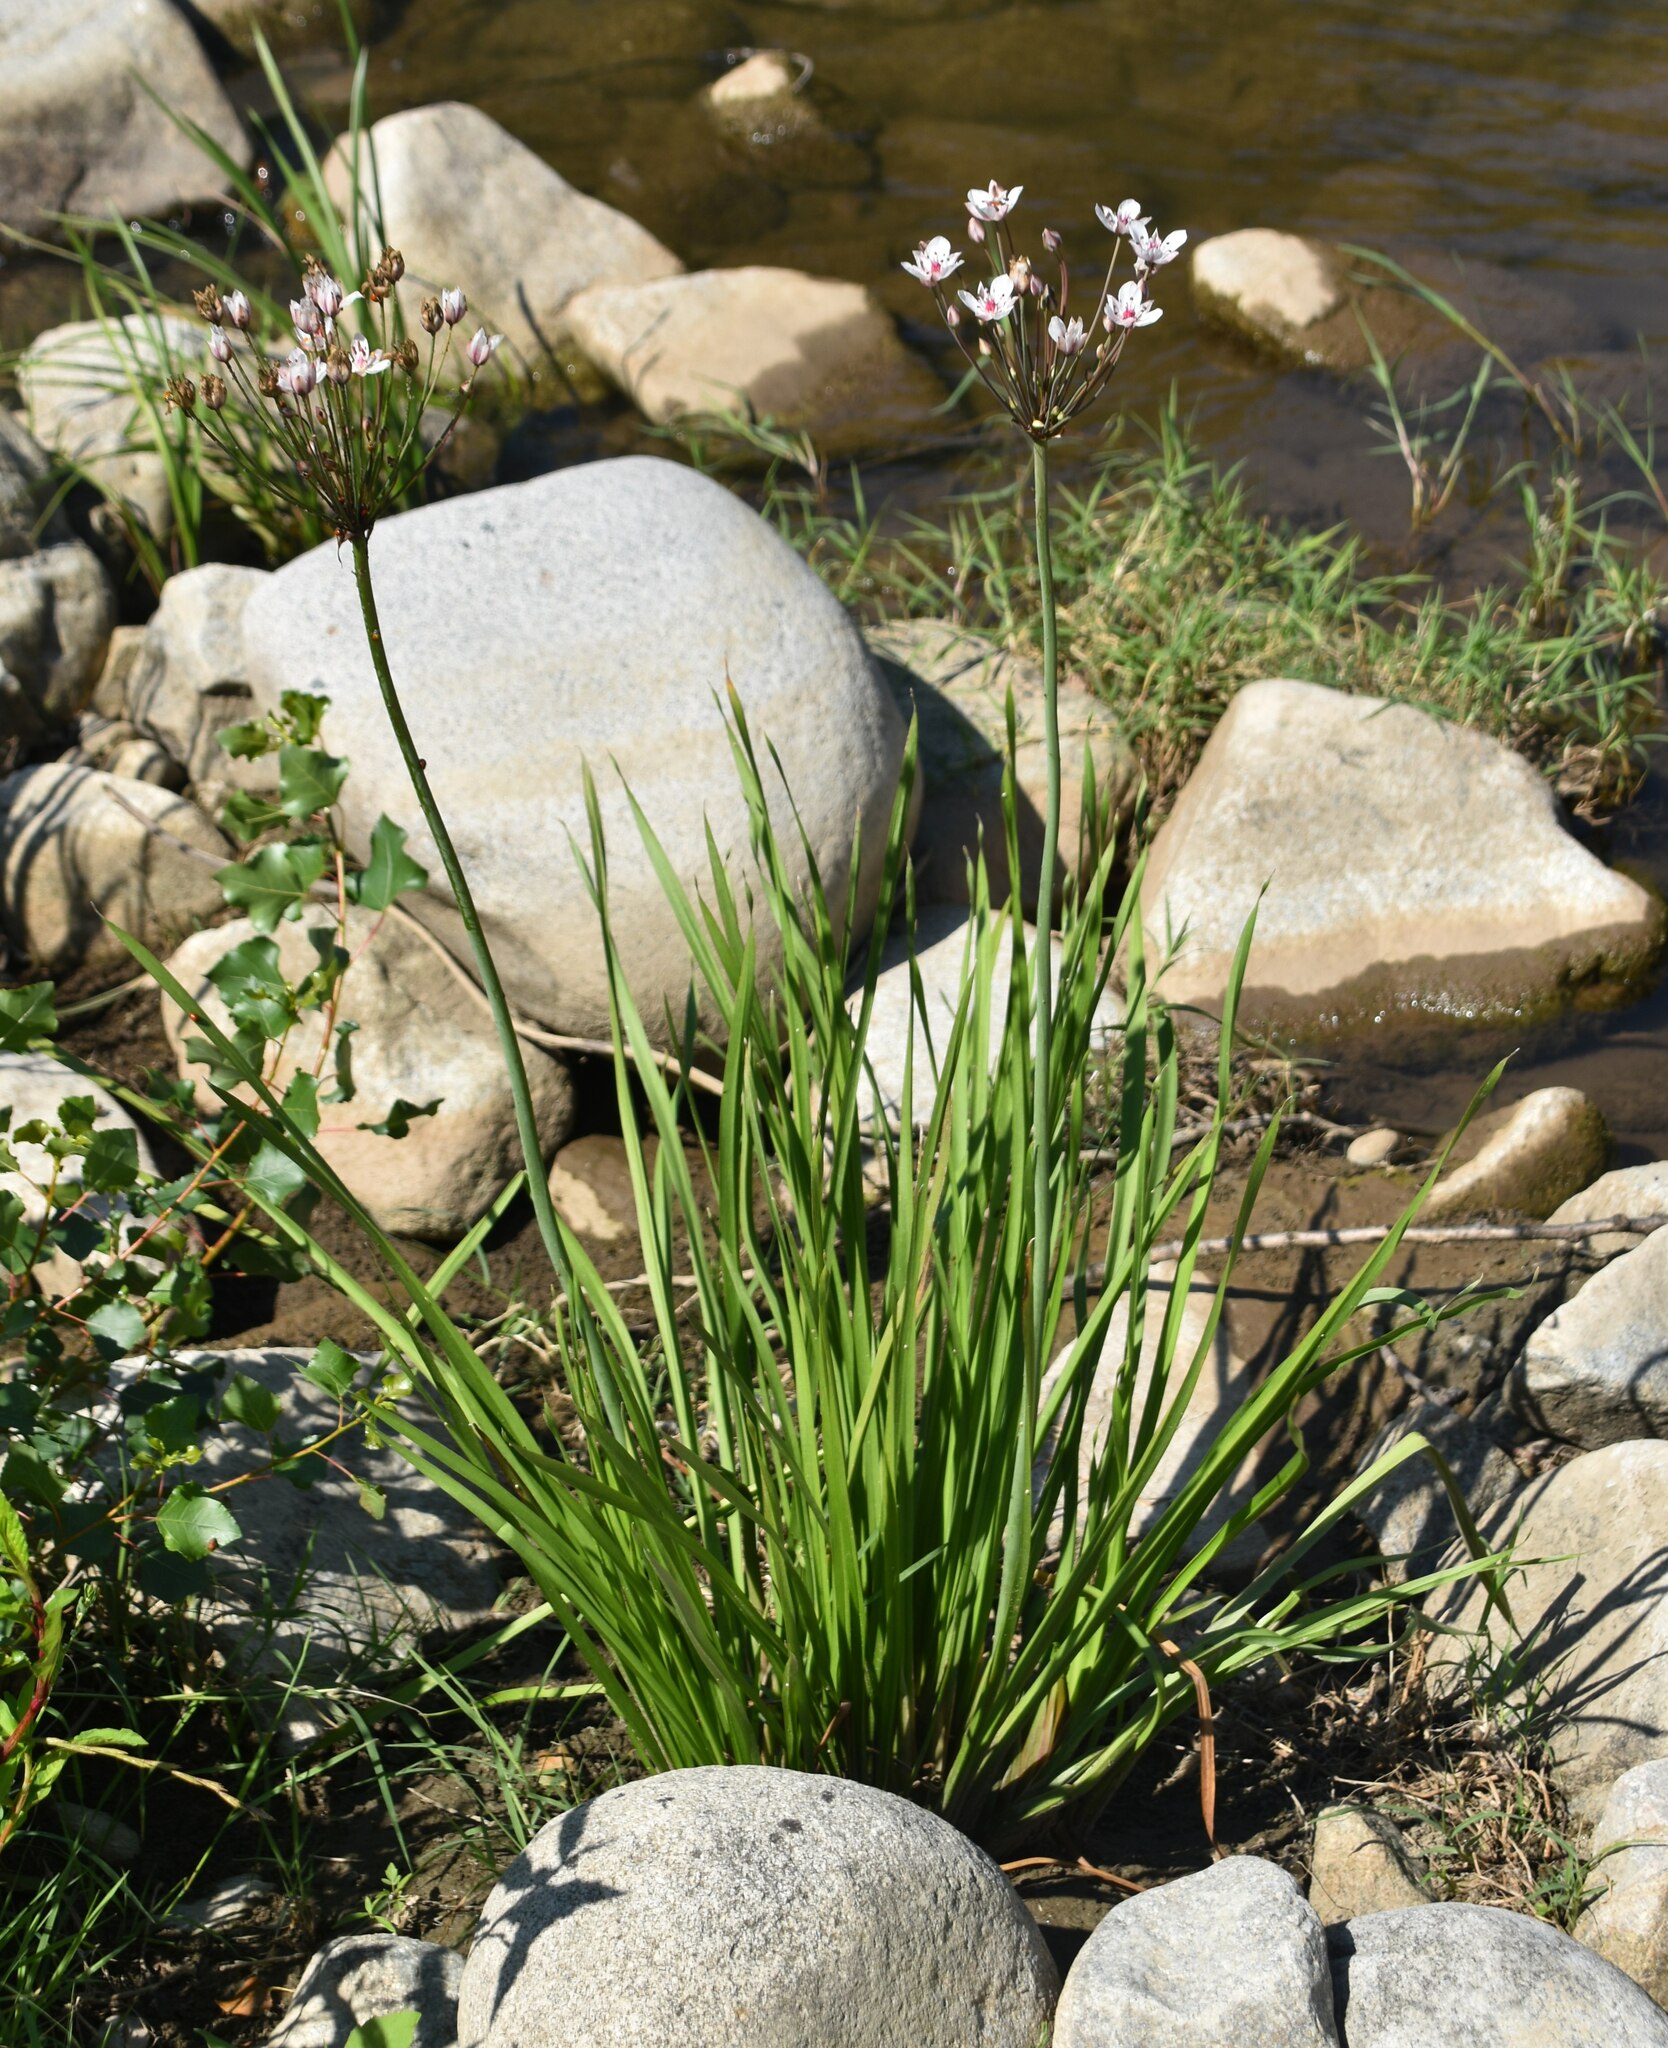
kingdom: Plantae
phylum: Tracheophyta
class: Liliopsida
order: Alismatales
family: Butomaceae
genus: Butomus
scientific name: Butomus umbellatus
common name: Flowering-rush
